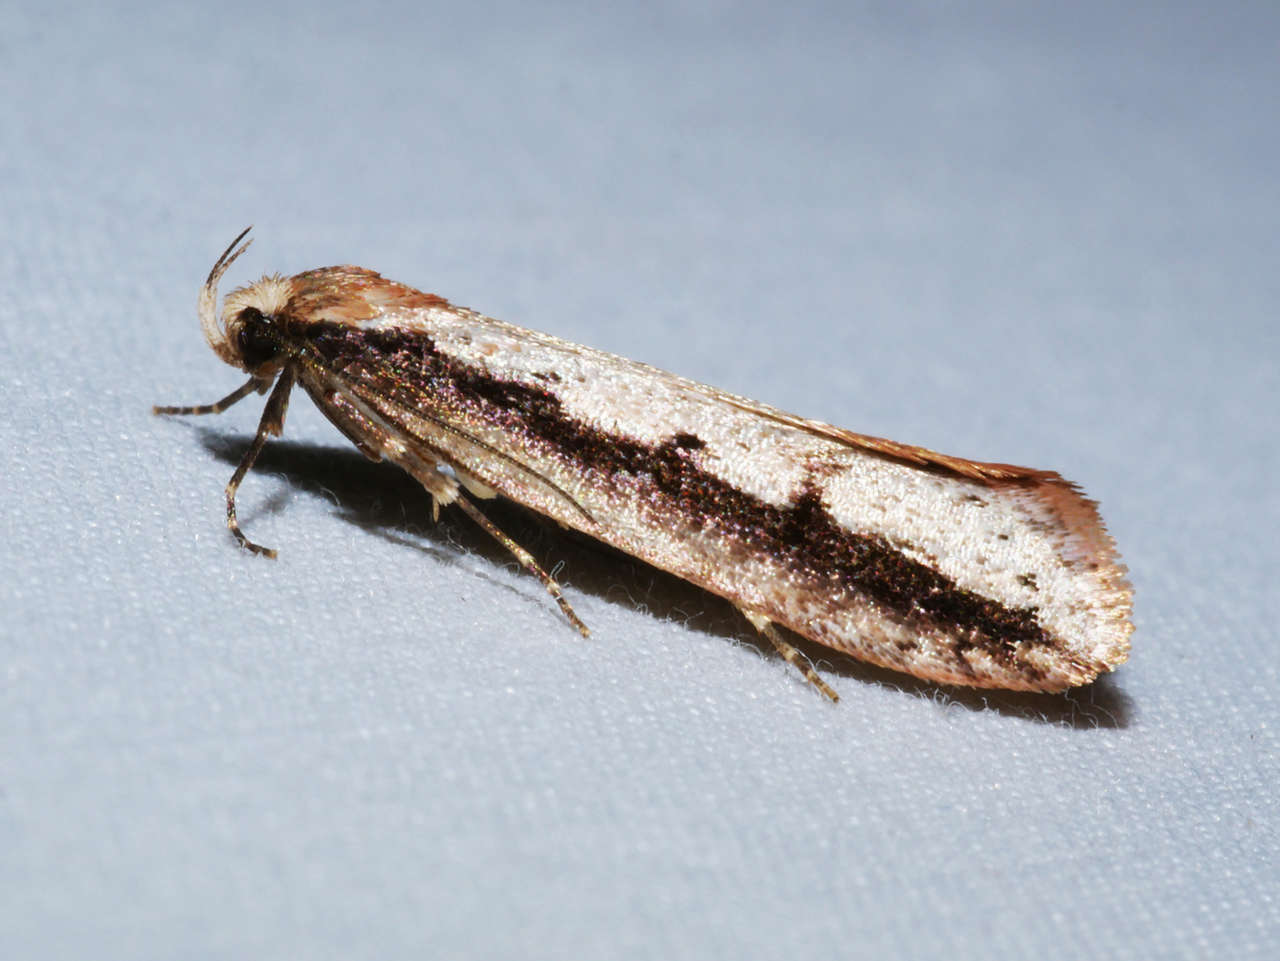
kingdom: Animalia
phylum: Arthropoda
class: Insecta
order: Lepidoptera
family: Oecophoridae
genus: Leptocroca
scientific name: Leptocroca sanguinolenta
